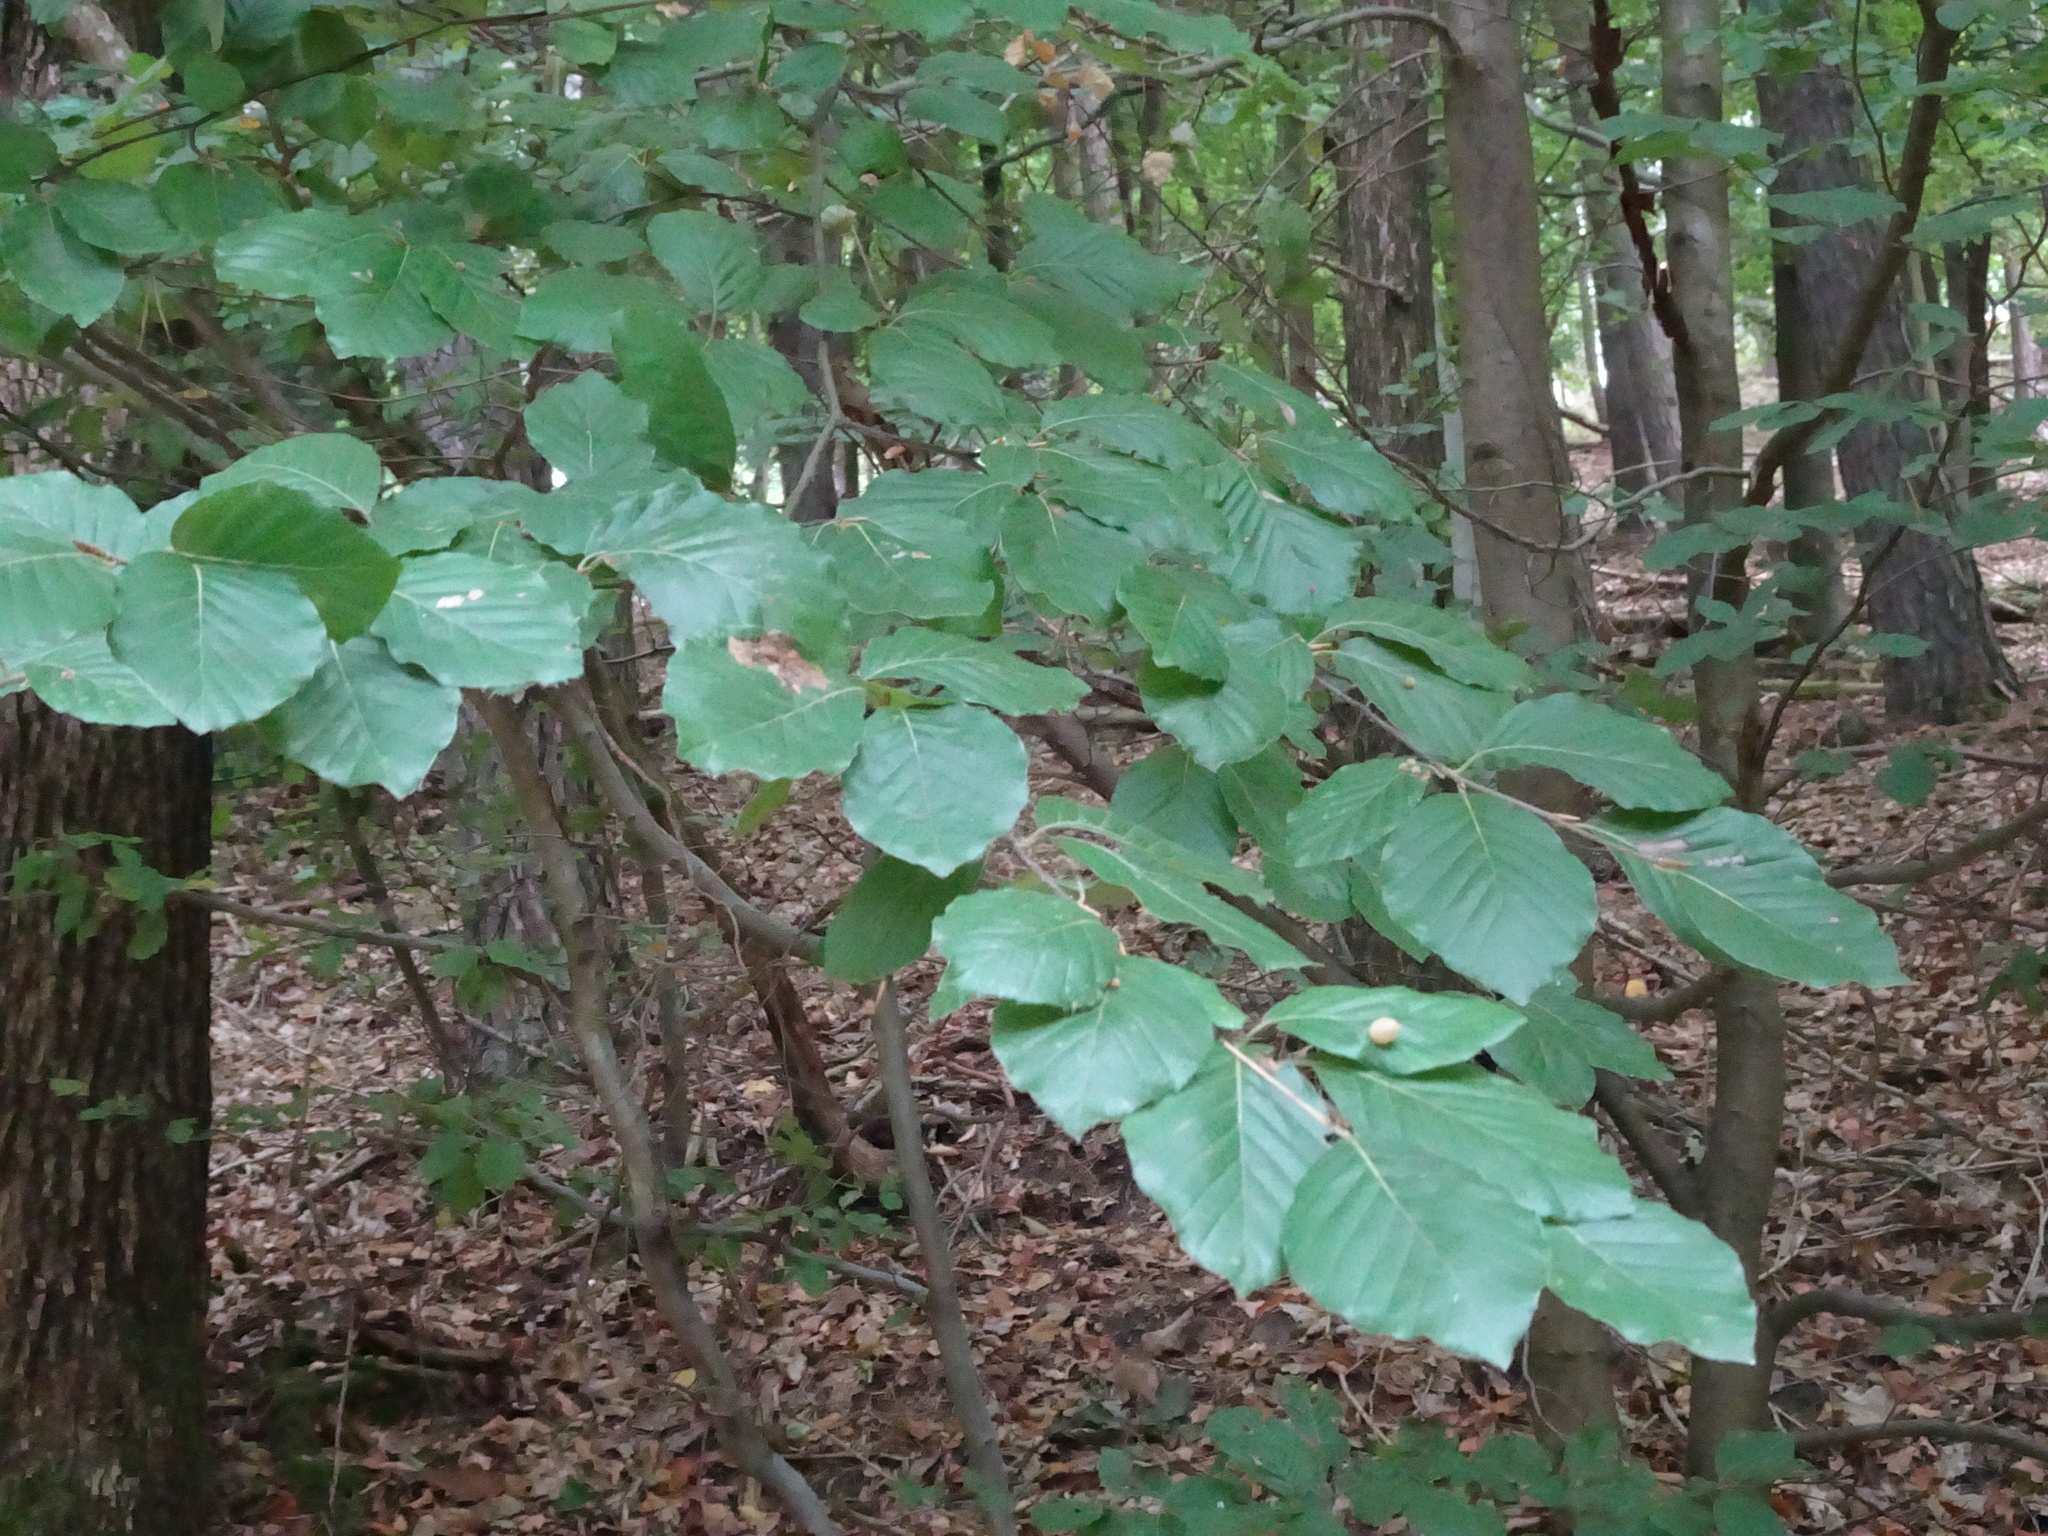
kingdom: Plantae
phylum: Tracheophyta
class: Magnoliopsida
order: Fagales
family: Fagaceae
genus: Fagus
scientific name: Fagus sylvatica
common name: Beech
